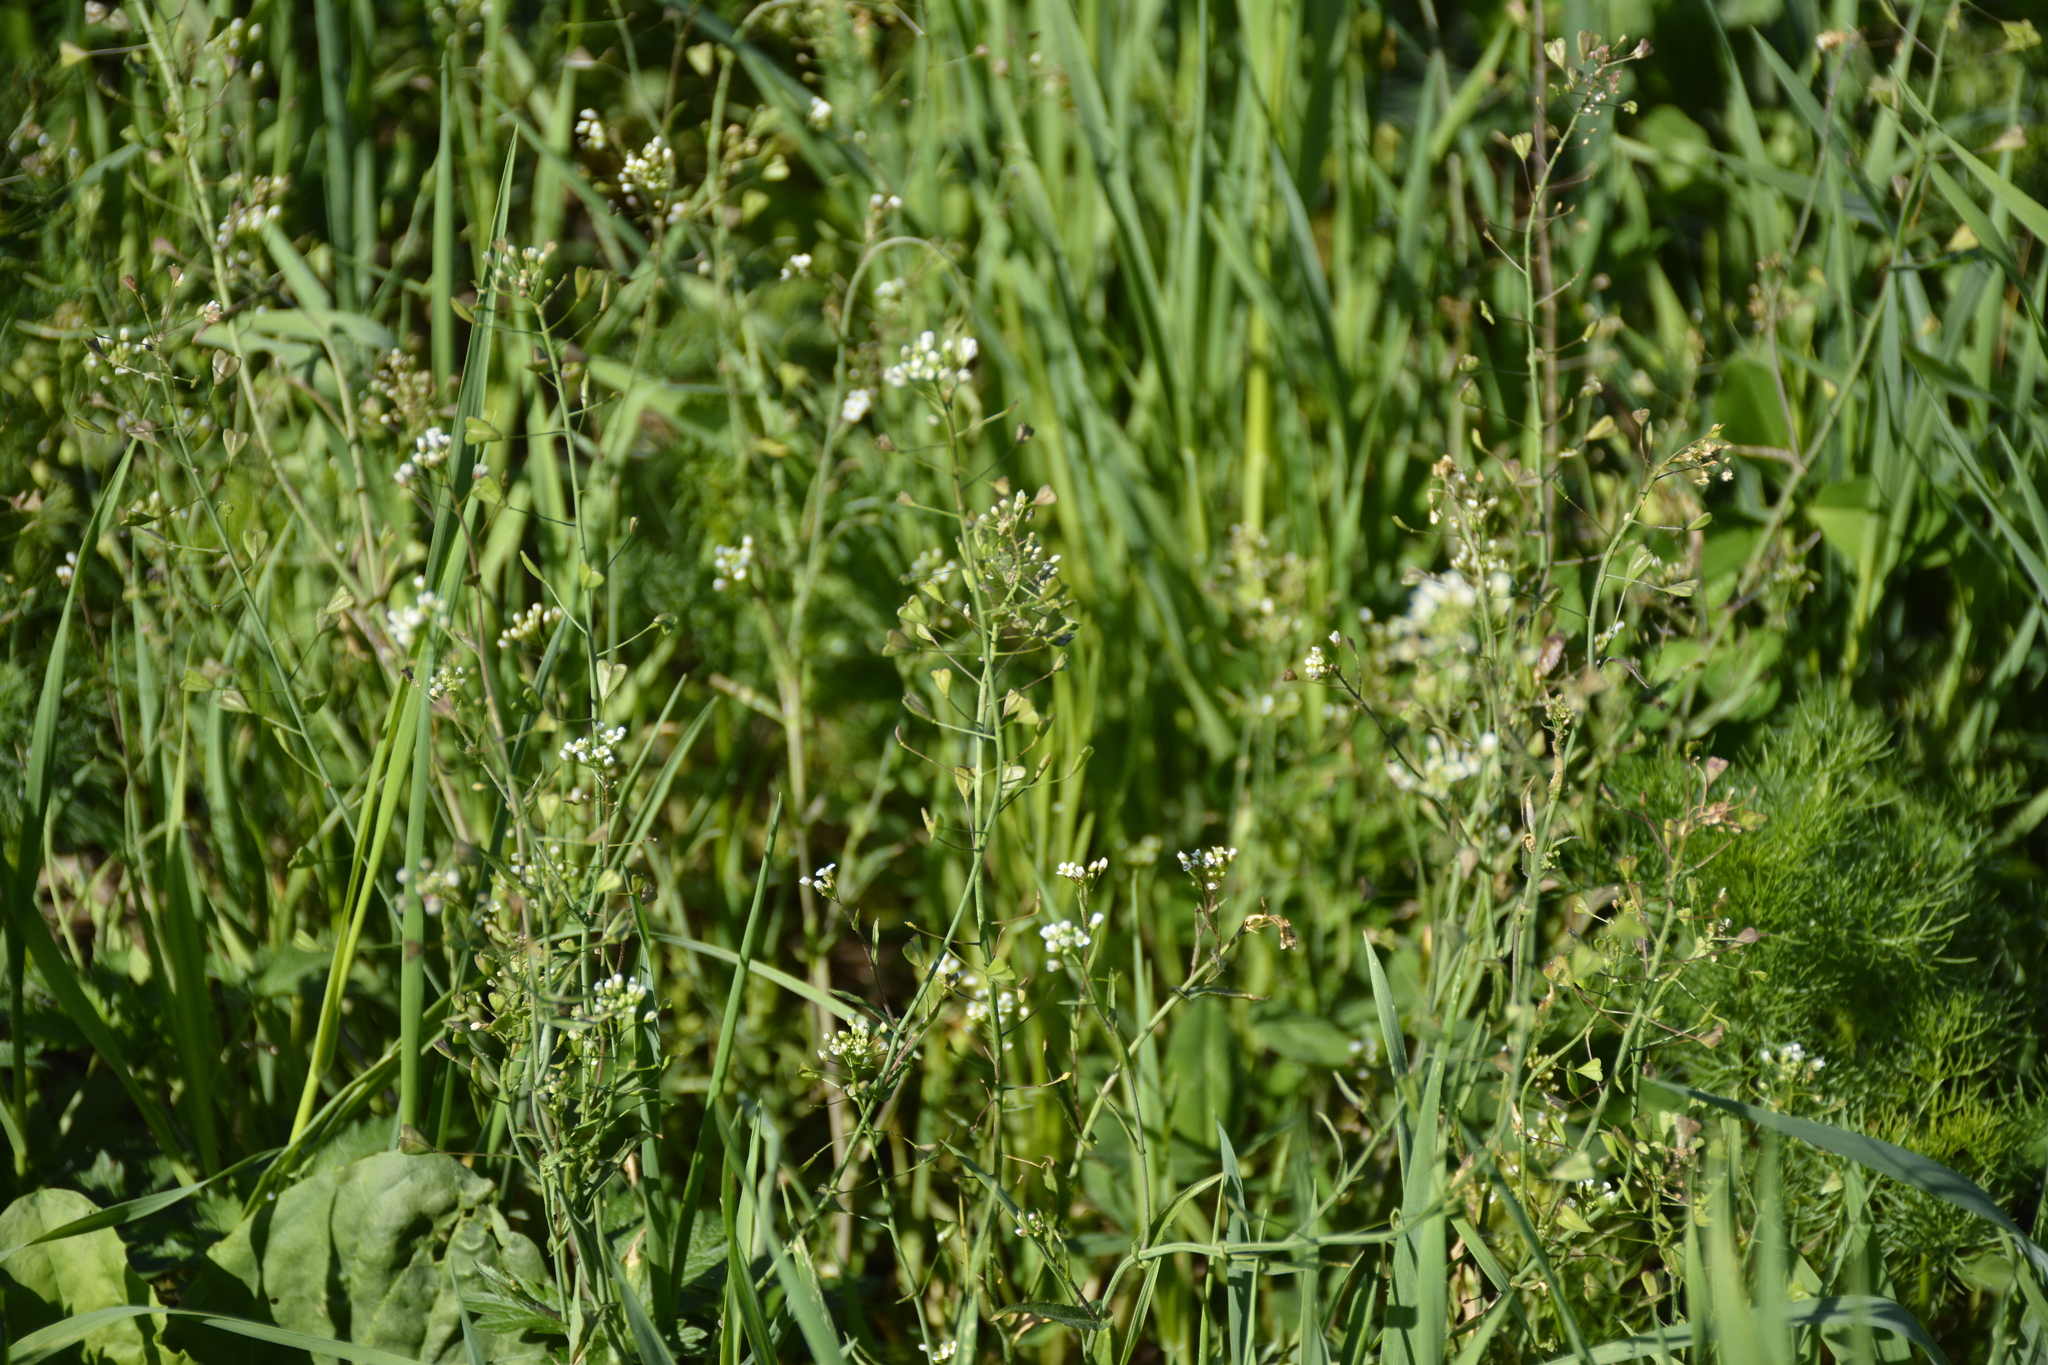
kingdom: Plantae
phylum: Tracheophyta
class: Magnoliopsida
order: Brassicales
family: Brassicaceae
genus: Capsella
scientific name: Capsella bursa-pastoris
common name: Shepherd's purse
